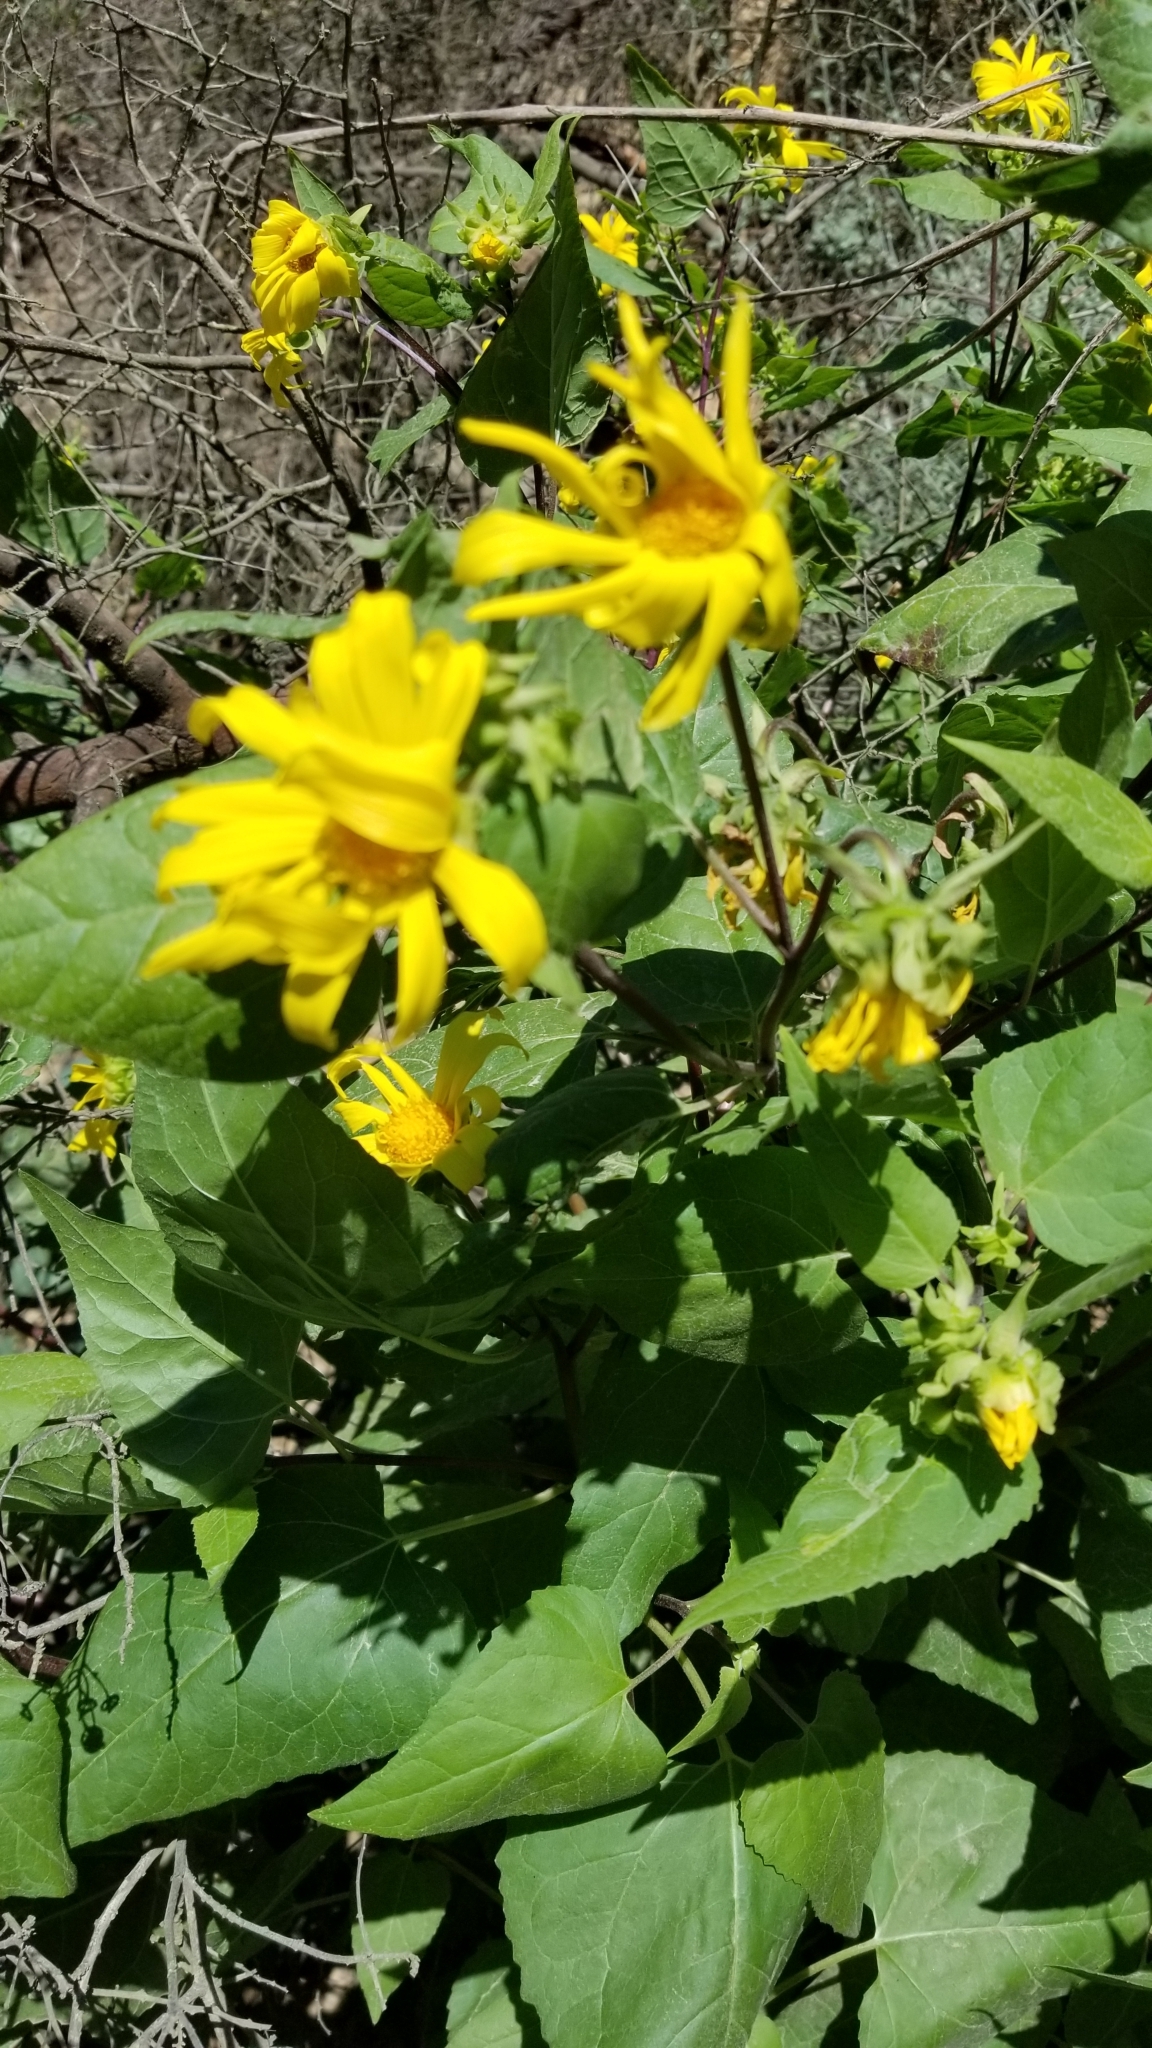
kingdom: Plantae
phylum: Tracheophyta
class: Magnoliopsida
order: Asterales
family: Asteraceae
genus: Venegasia
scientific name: Venegasia carpesioides
